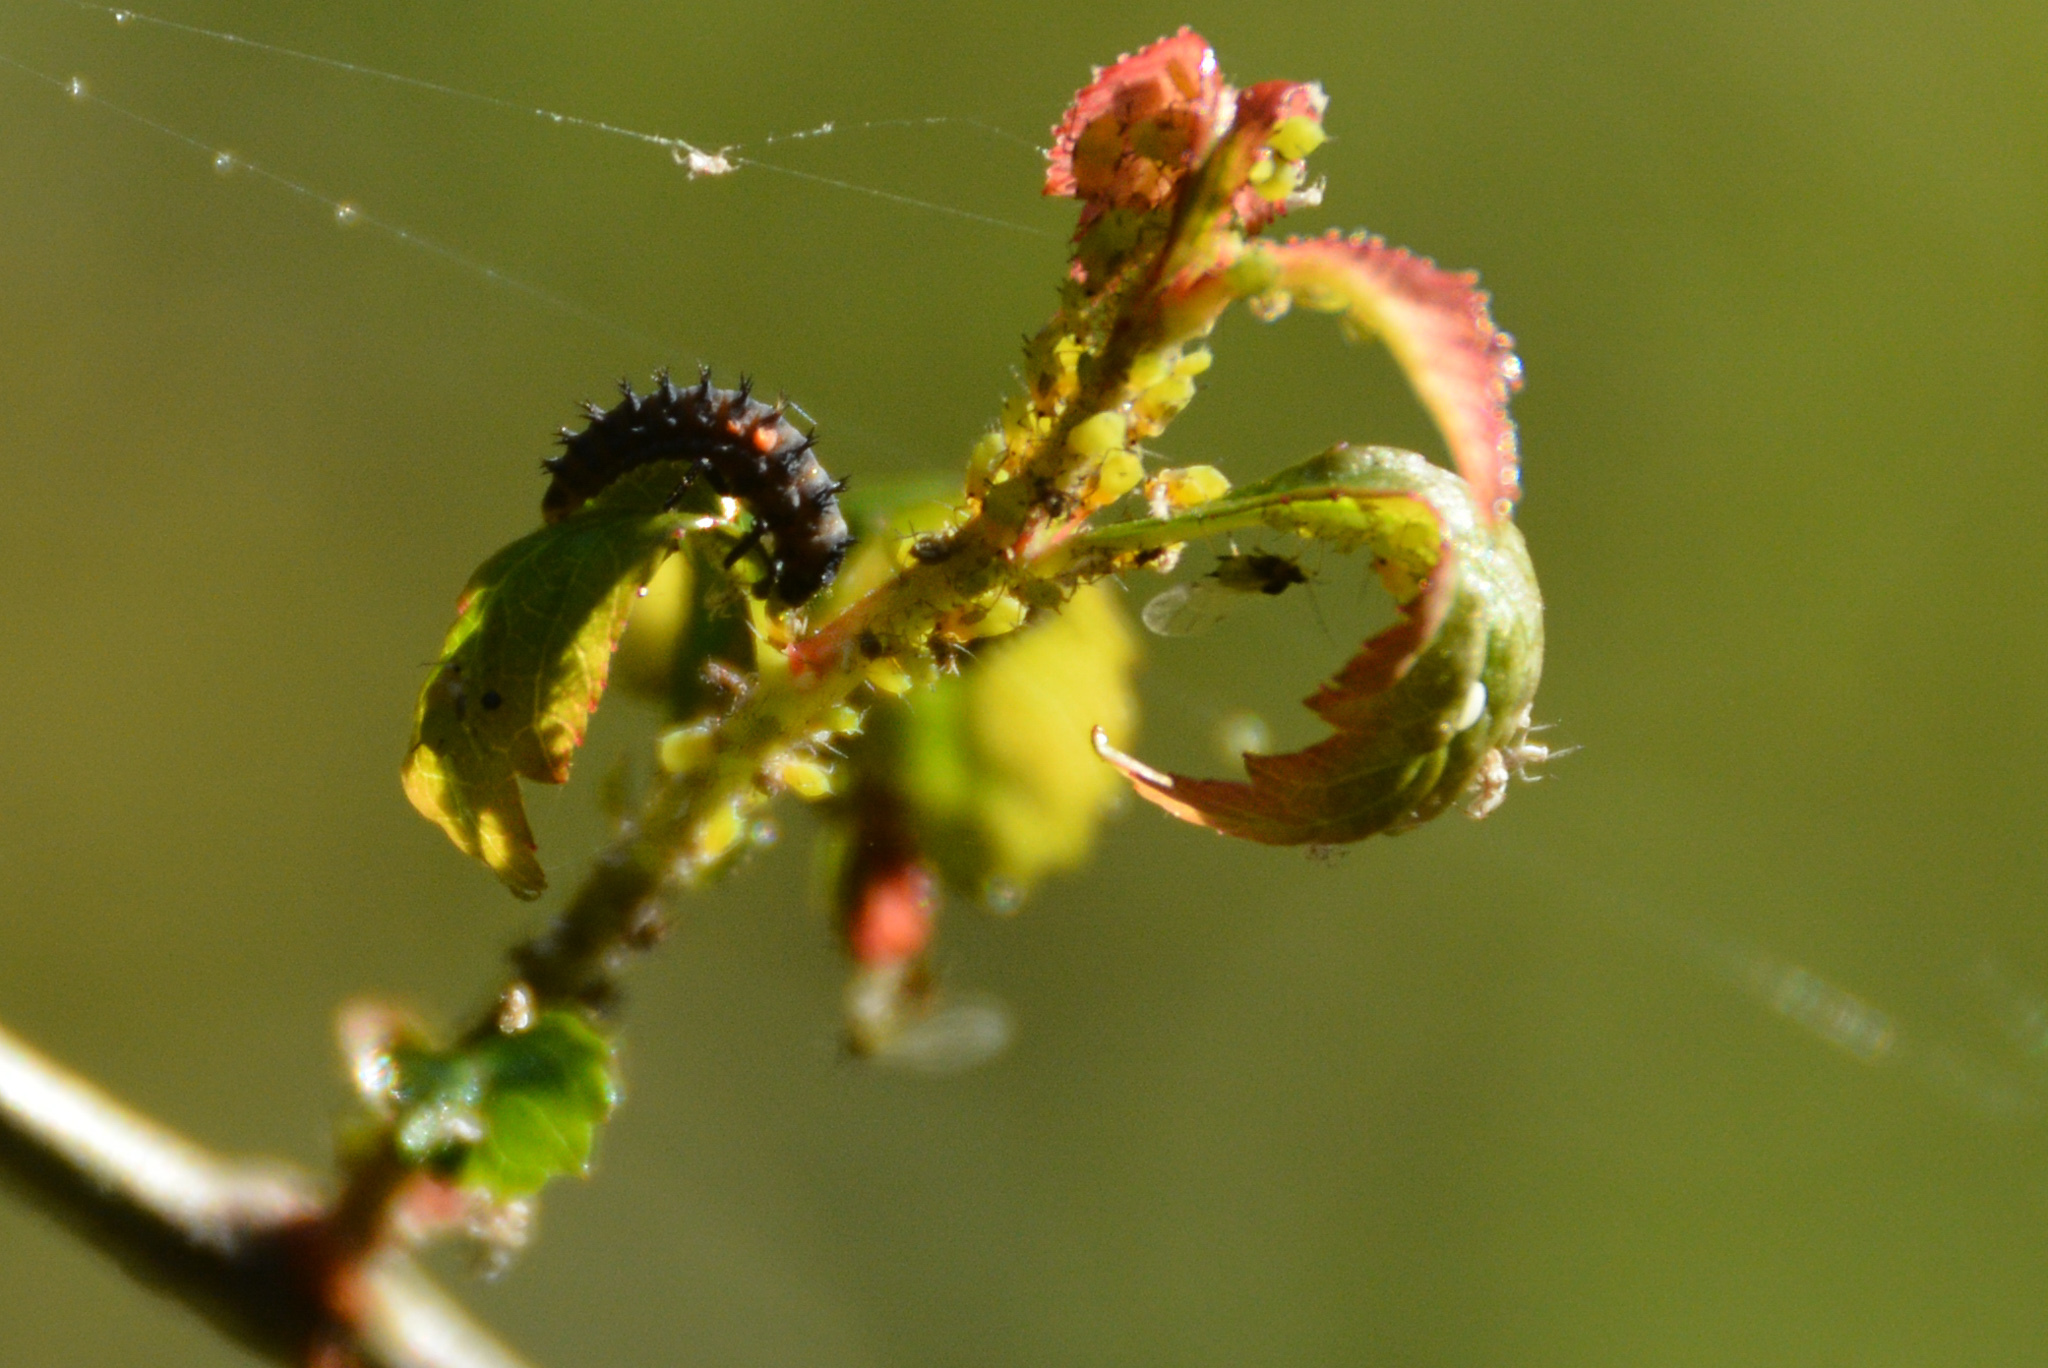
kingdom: Animalia
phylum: Arthropoda
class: Insecta
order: Coleoptera
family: Coccinellidae
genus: Harmonia
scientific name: Harmonia axyridis
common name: Harlequin ladybird
